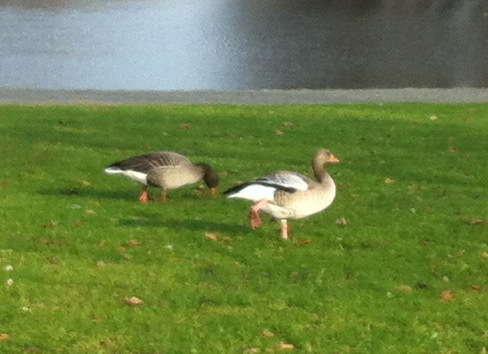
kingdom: Animalia
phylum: Chordata
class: Aves
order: Anseriformes
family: Anatidae
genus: Anser
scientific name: Anser anser
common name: Greylag goose
